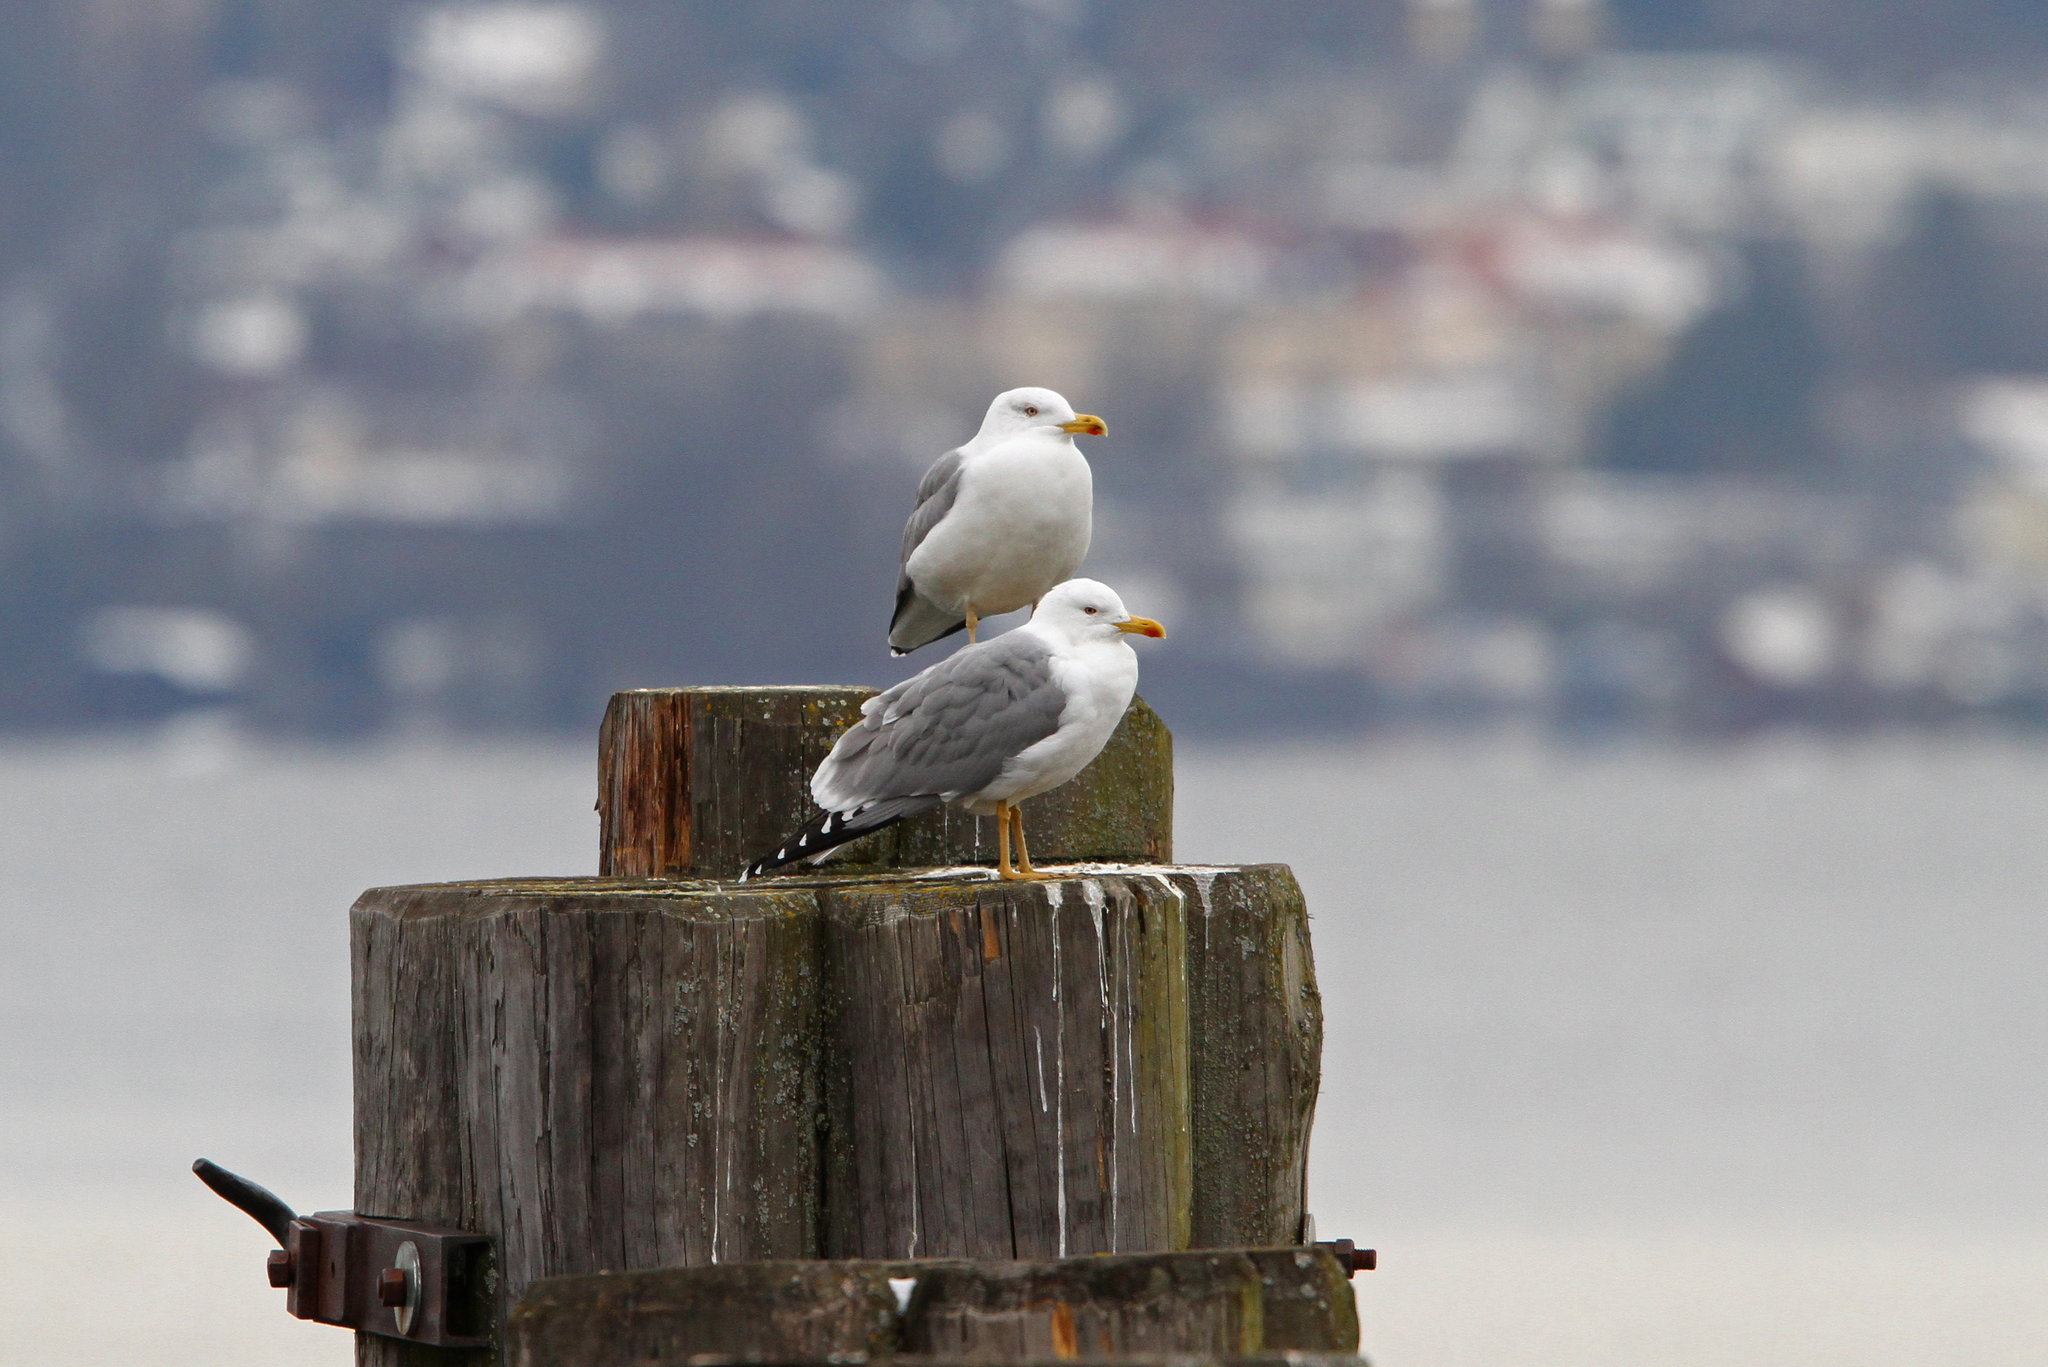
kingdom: Animalia
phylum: Chordata
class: Aves
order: Charadriiformes
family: Laridae
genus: Larus
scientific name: Larus michahellis
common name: Yellow-legged gull
